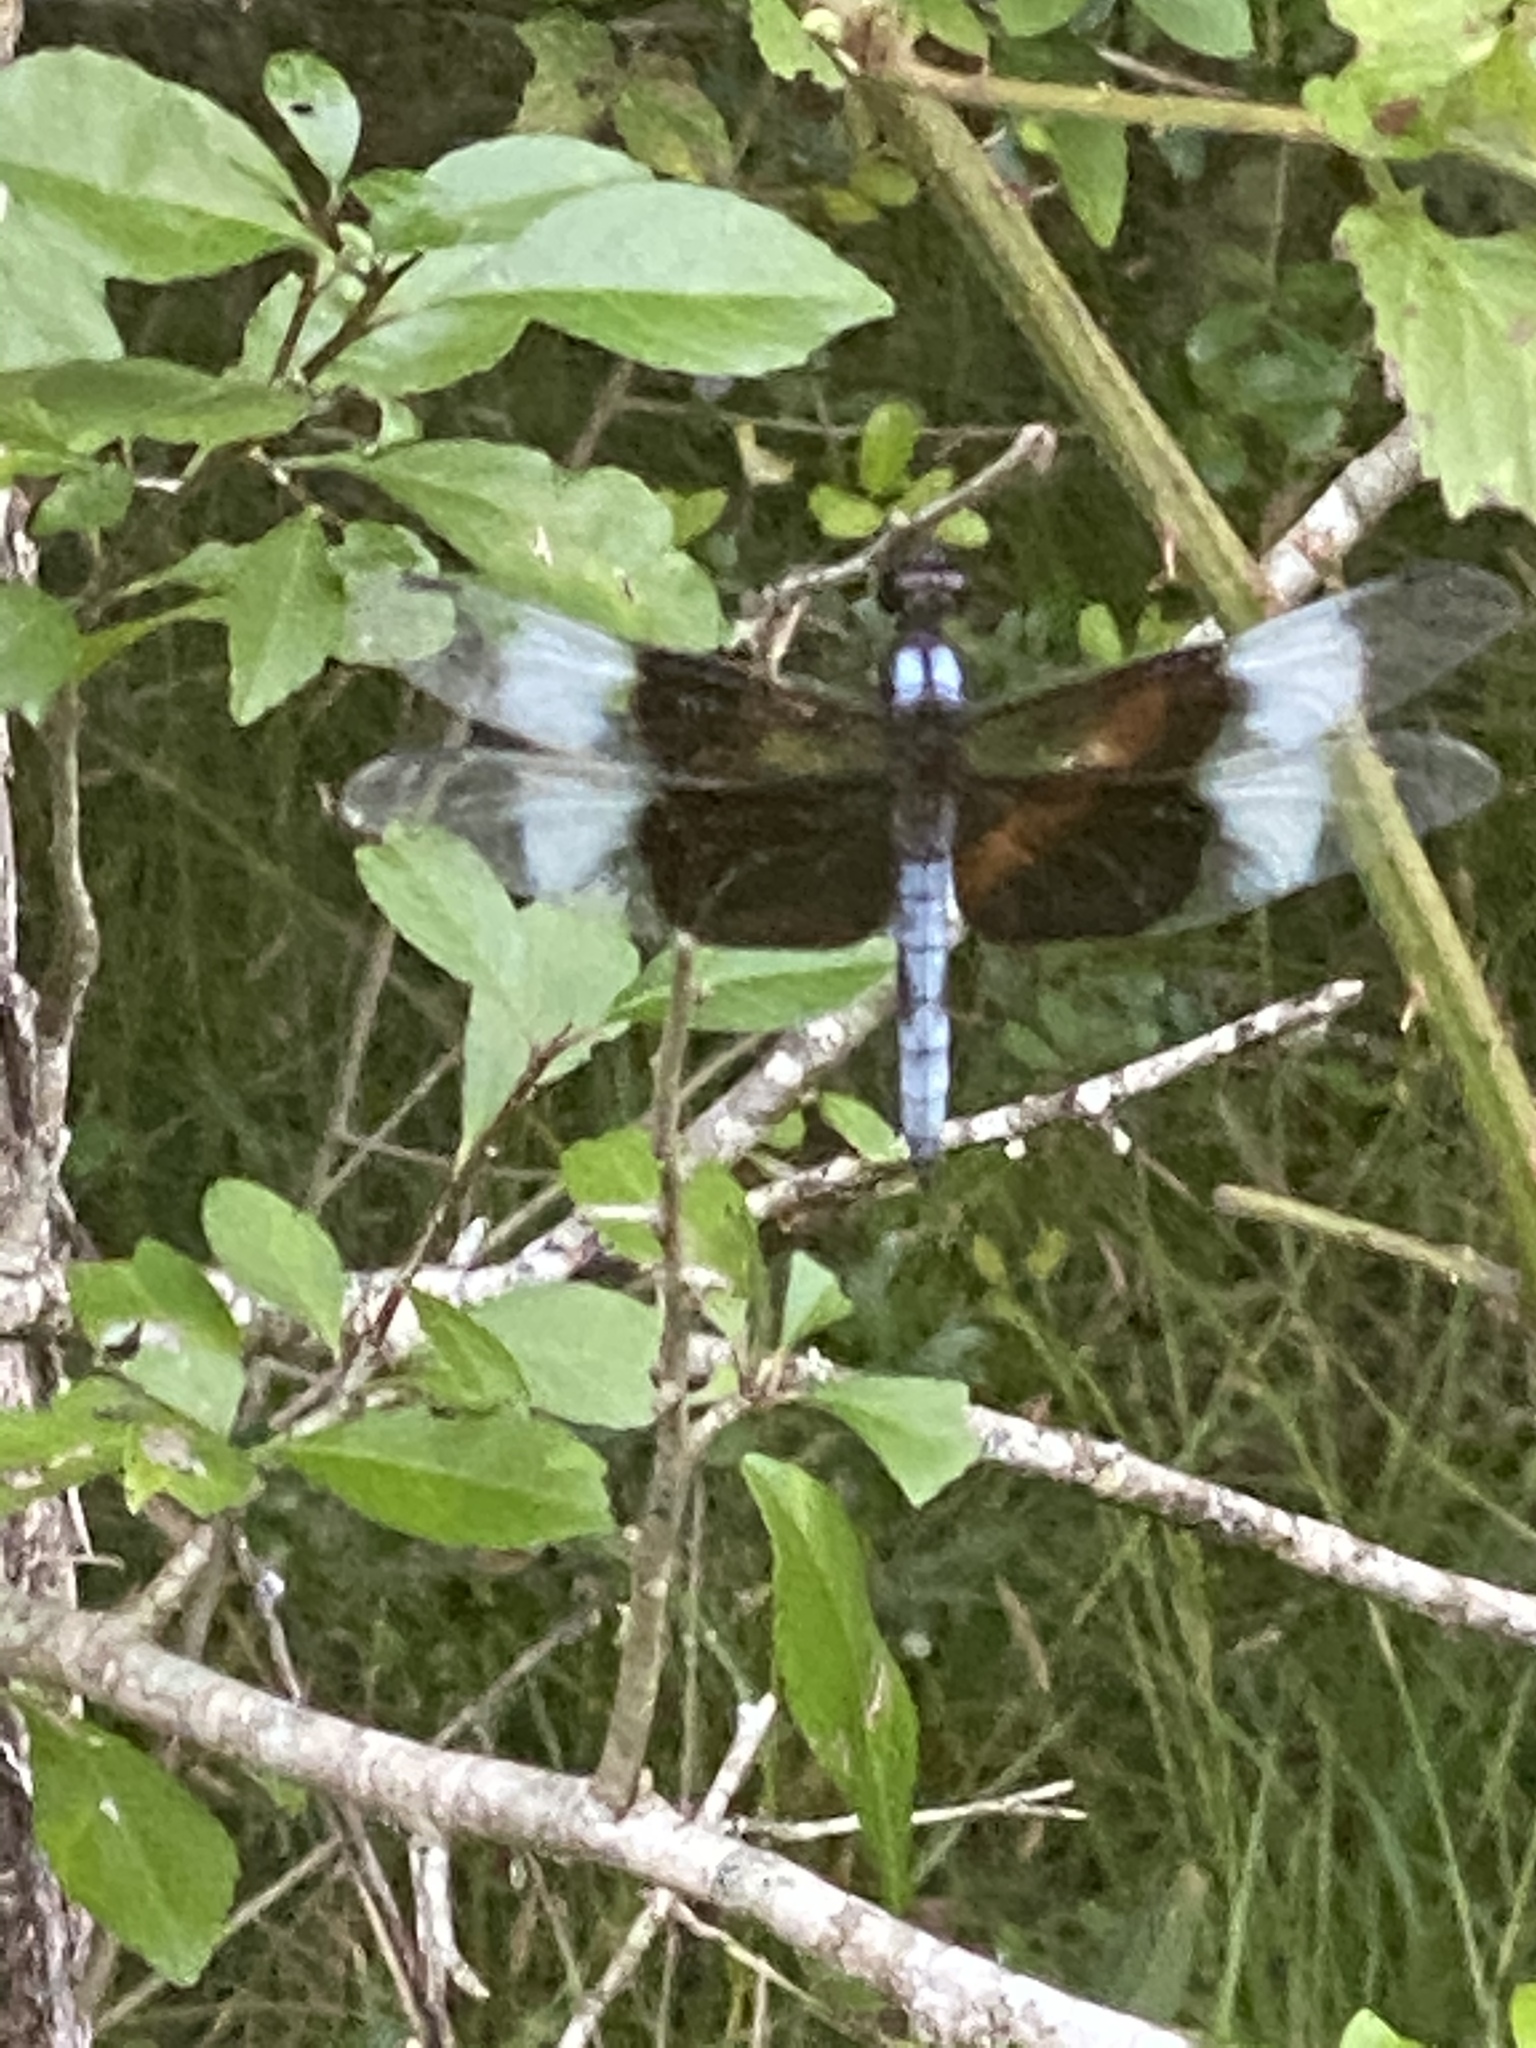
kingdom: Animalia
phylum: Arthropoda
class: Insecta
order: Odonata
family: Libellulidae
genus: Libellula
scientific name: Libellula luctuosa
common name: Widow skimmer
